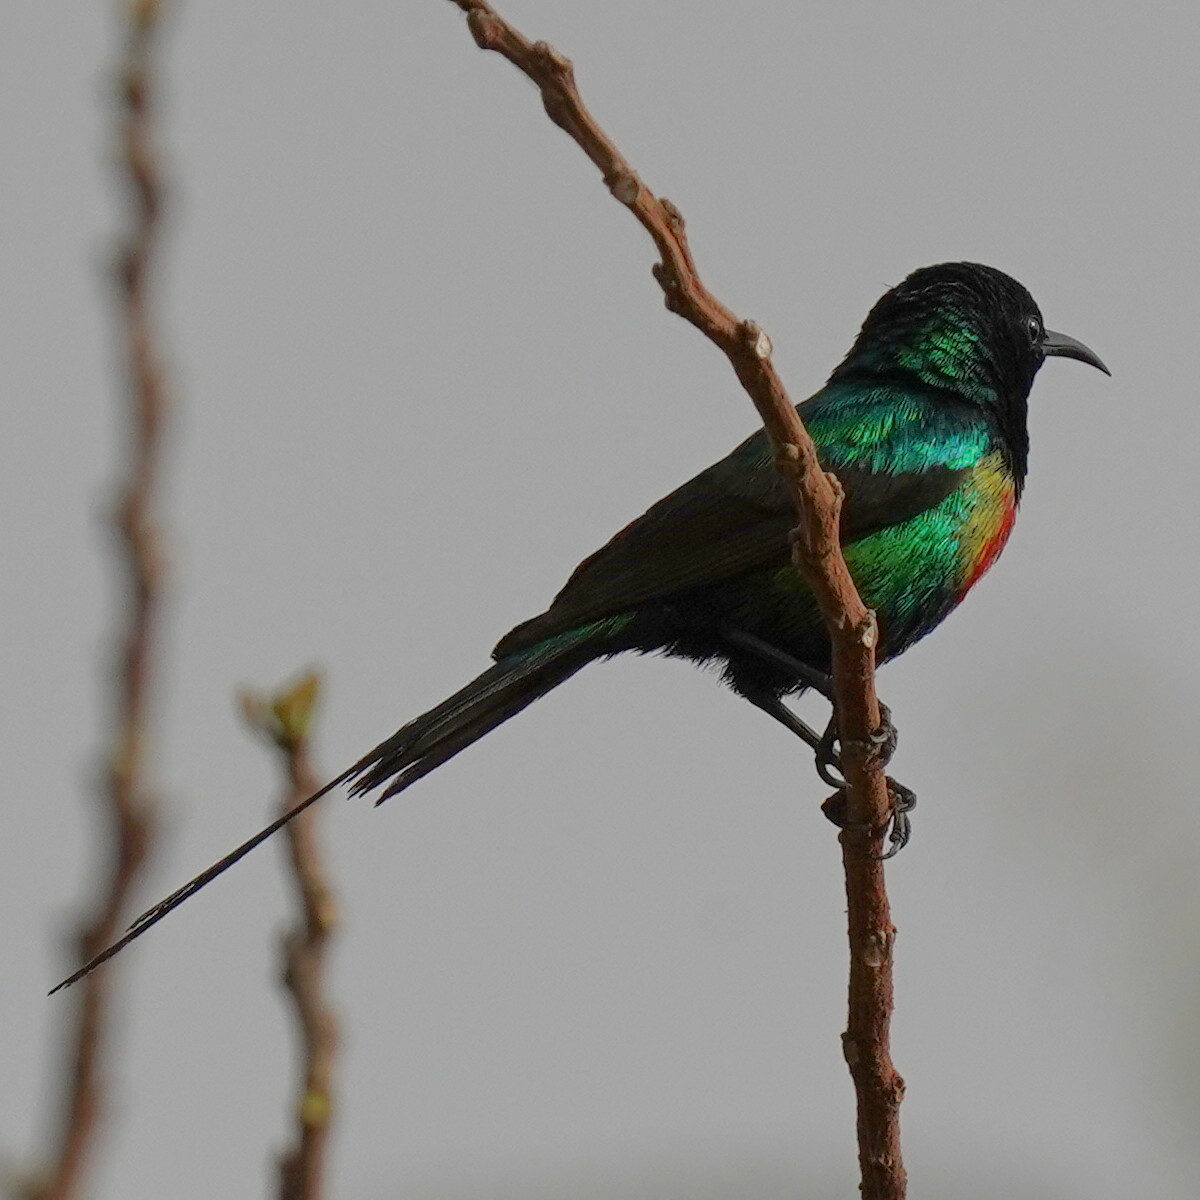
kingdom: Animalia
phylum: Chordata
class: Aves
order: Passeriformes
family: Nectariniidae
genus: Cinnyris
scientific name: Cinnyris pulchellus
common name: Beautiful sunbird
